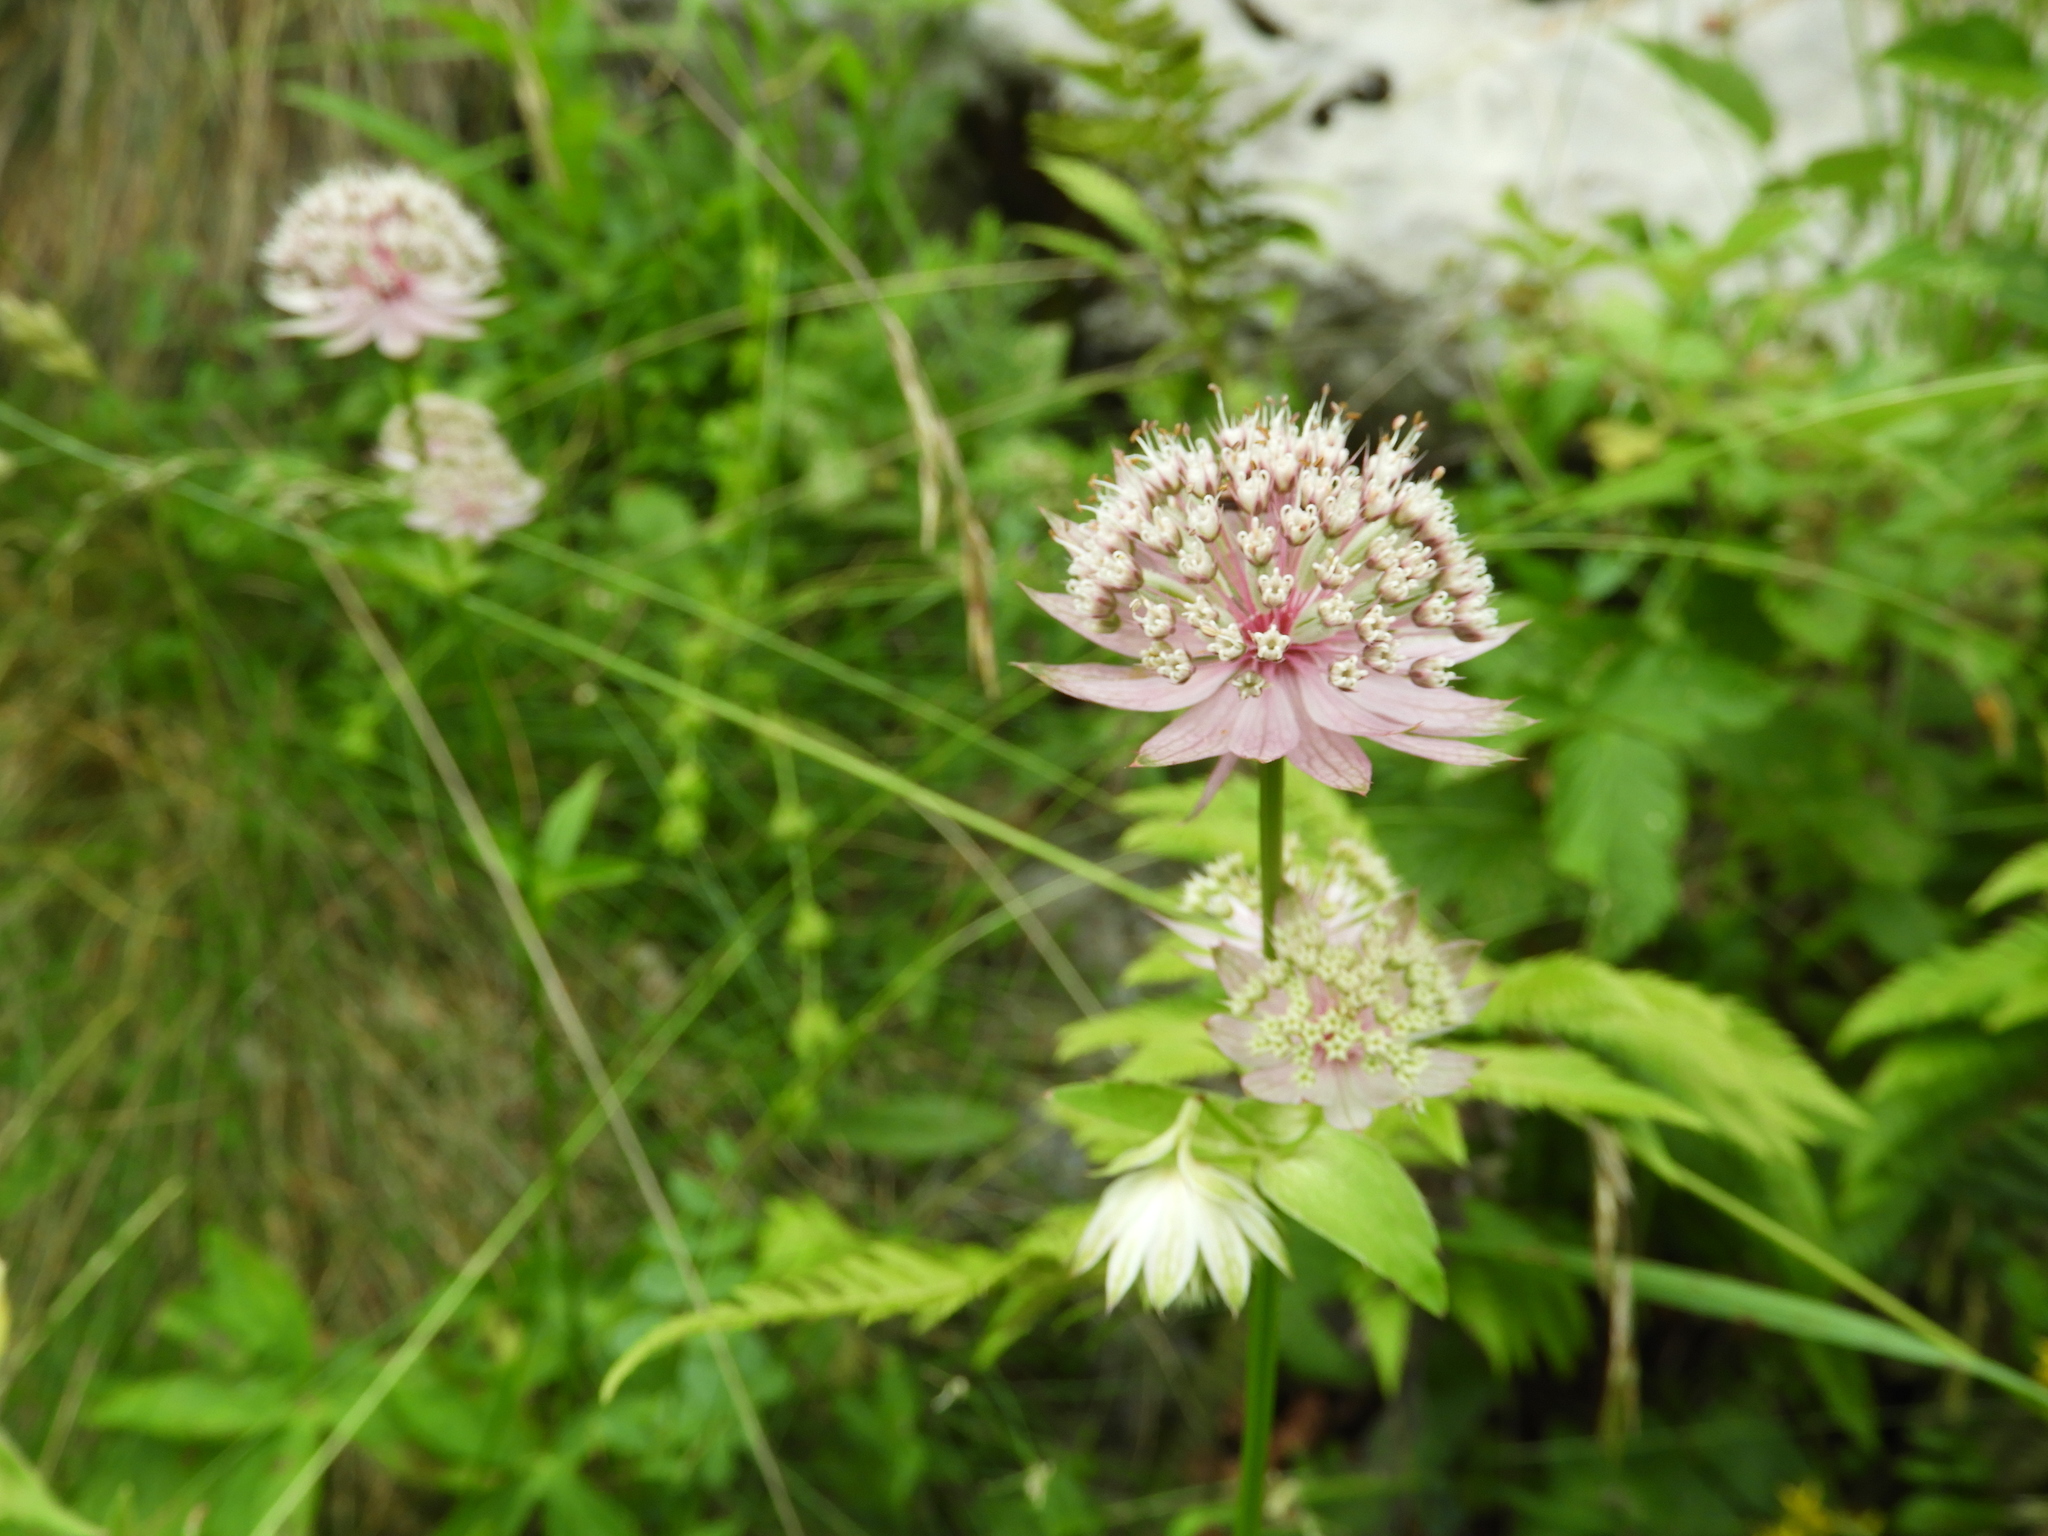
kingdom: Plantae
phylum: Tracheophyta
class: Magnoliopsida
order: Apiales
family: Apiaceae
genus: Astrantia
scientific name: Astrantia major
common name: Greater masterwort
